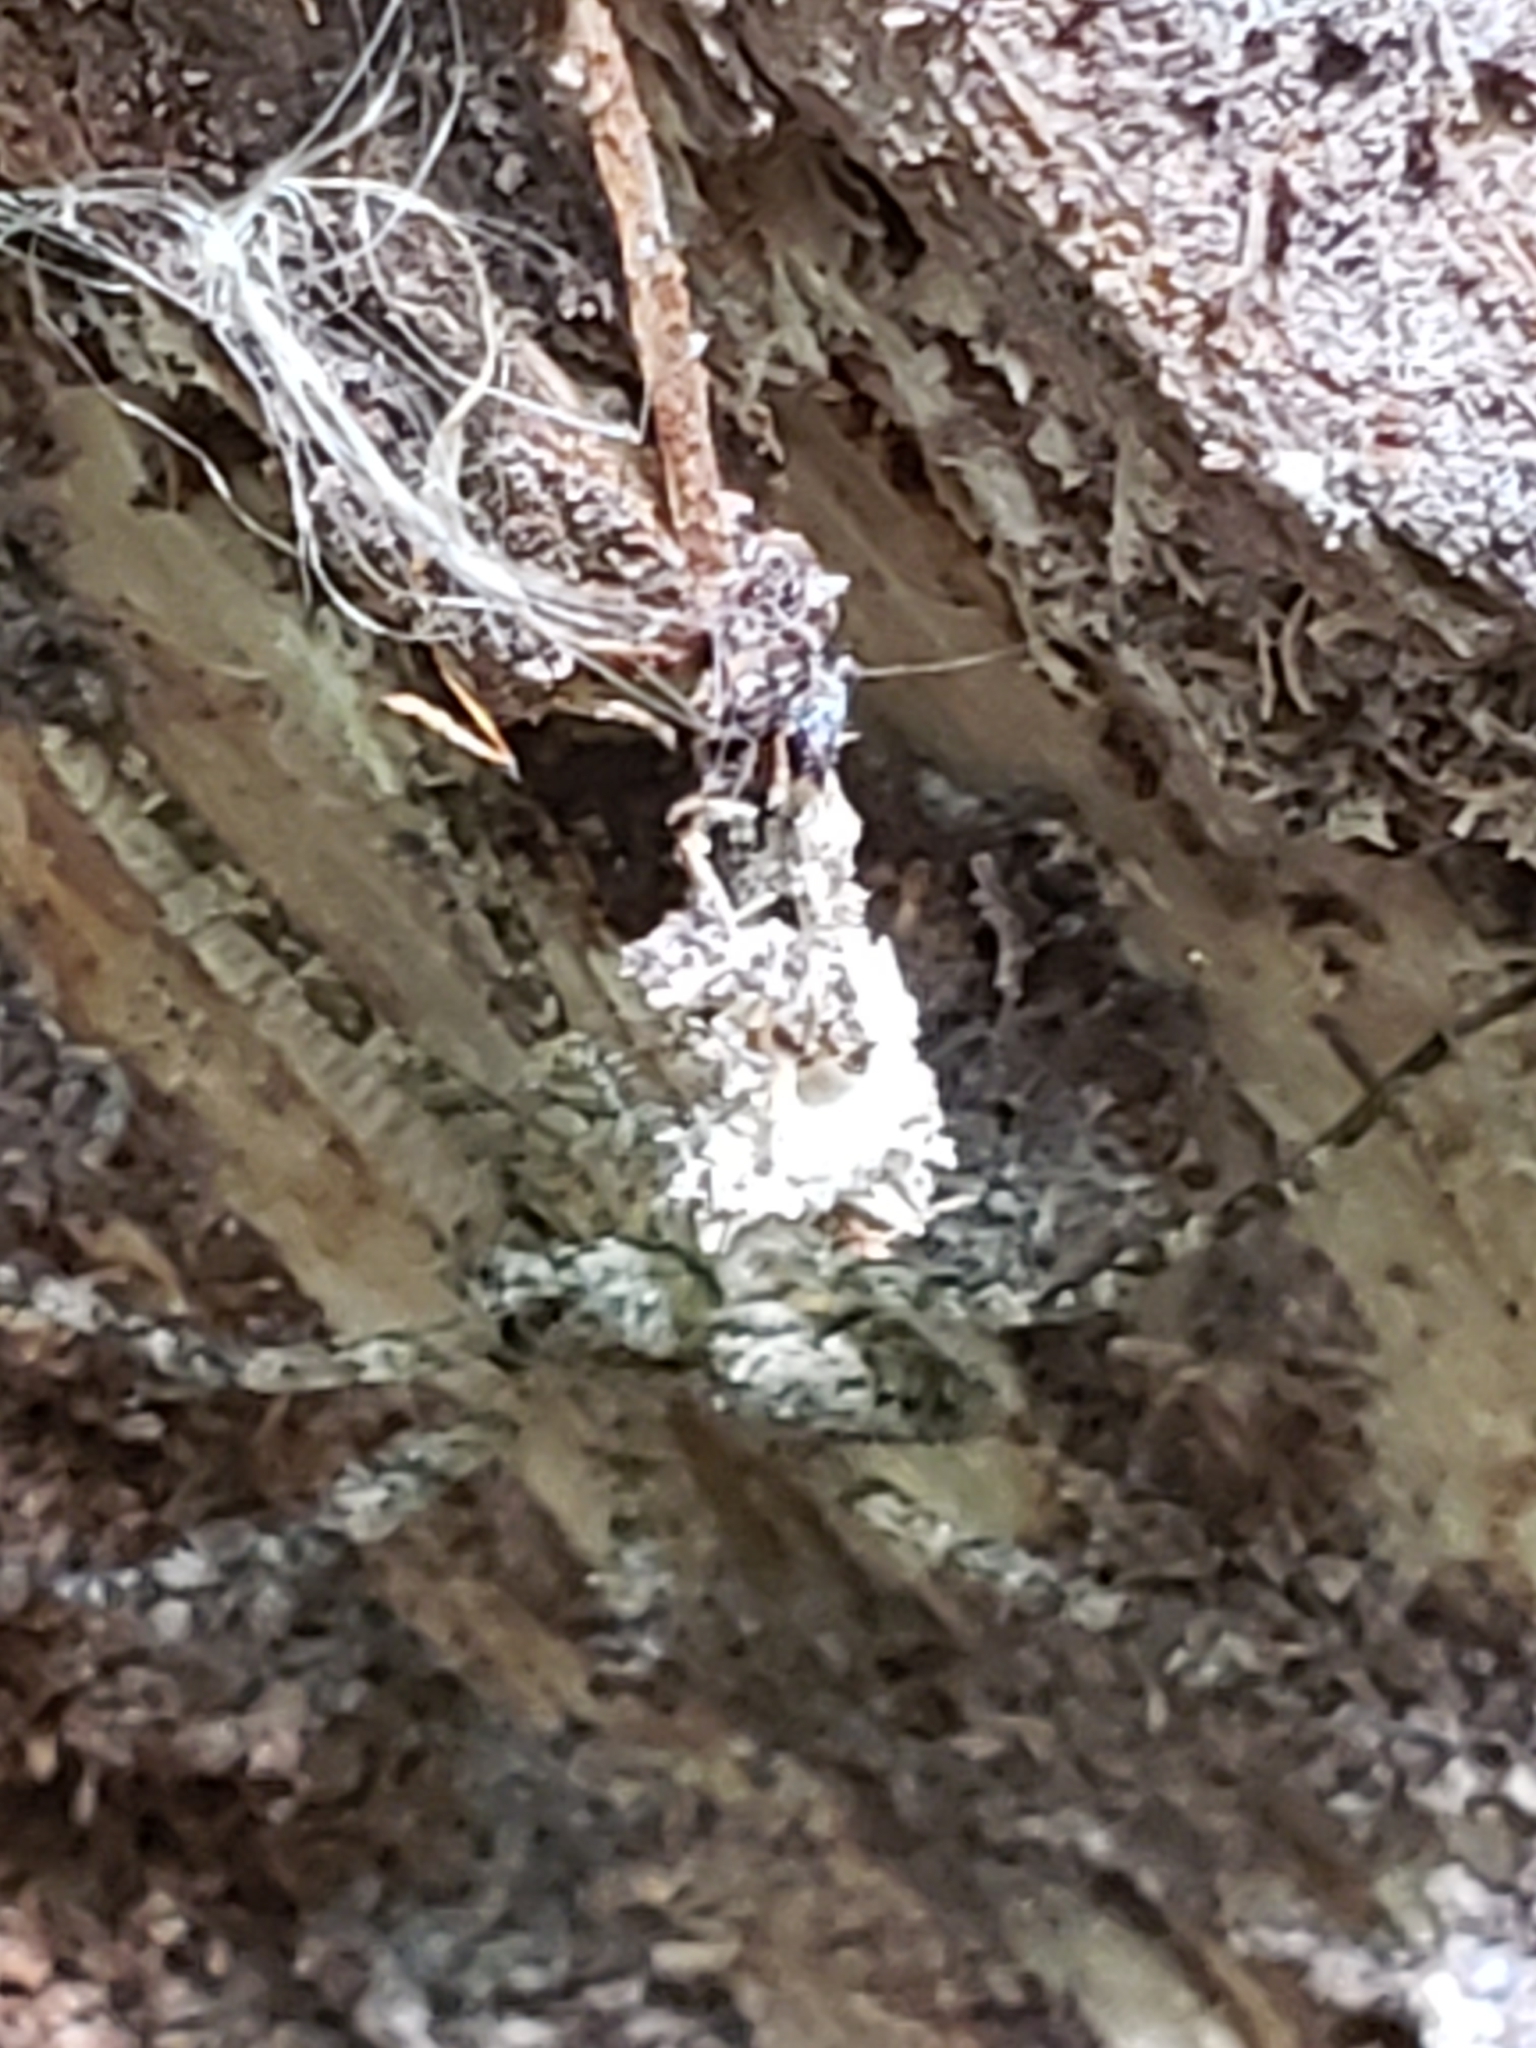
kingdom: Animalia
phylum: Arthropoda
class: Arachnida
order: Araneae
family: Pisauridae
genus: Dolomedes
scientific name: Dolomedes albineus
